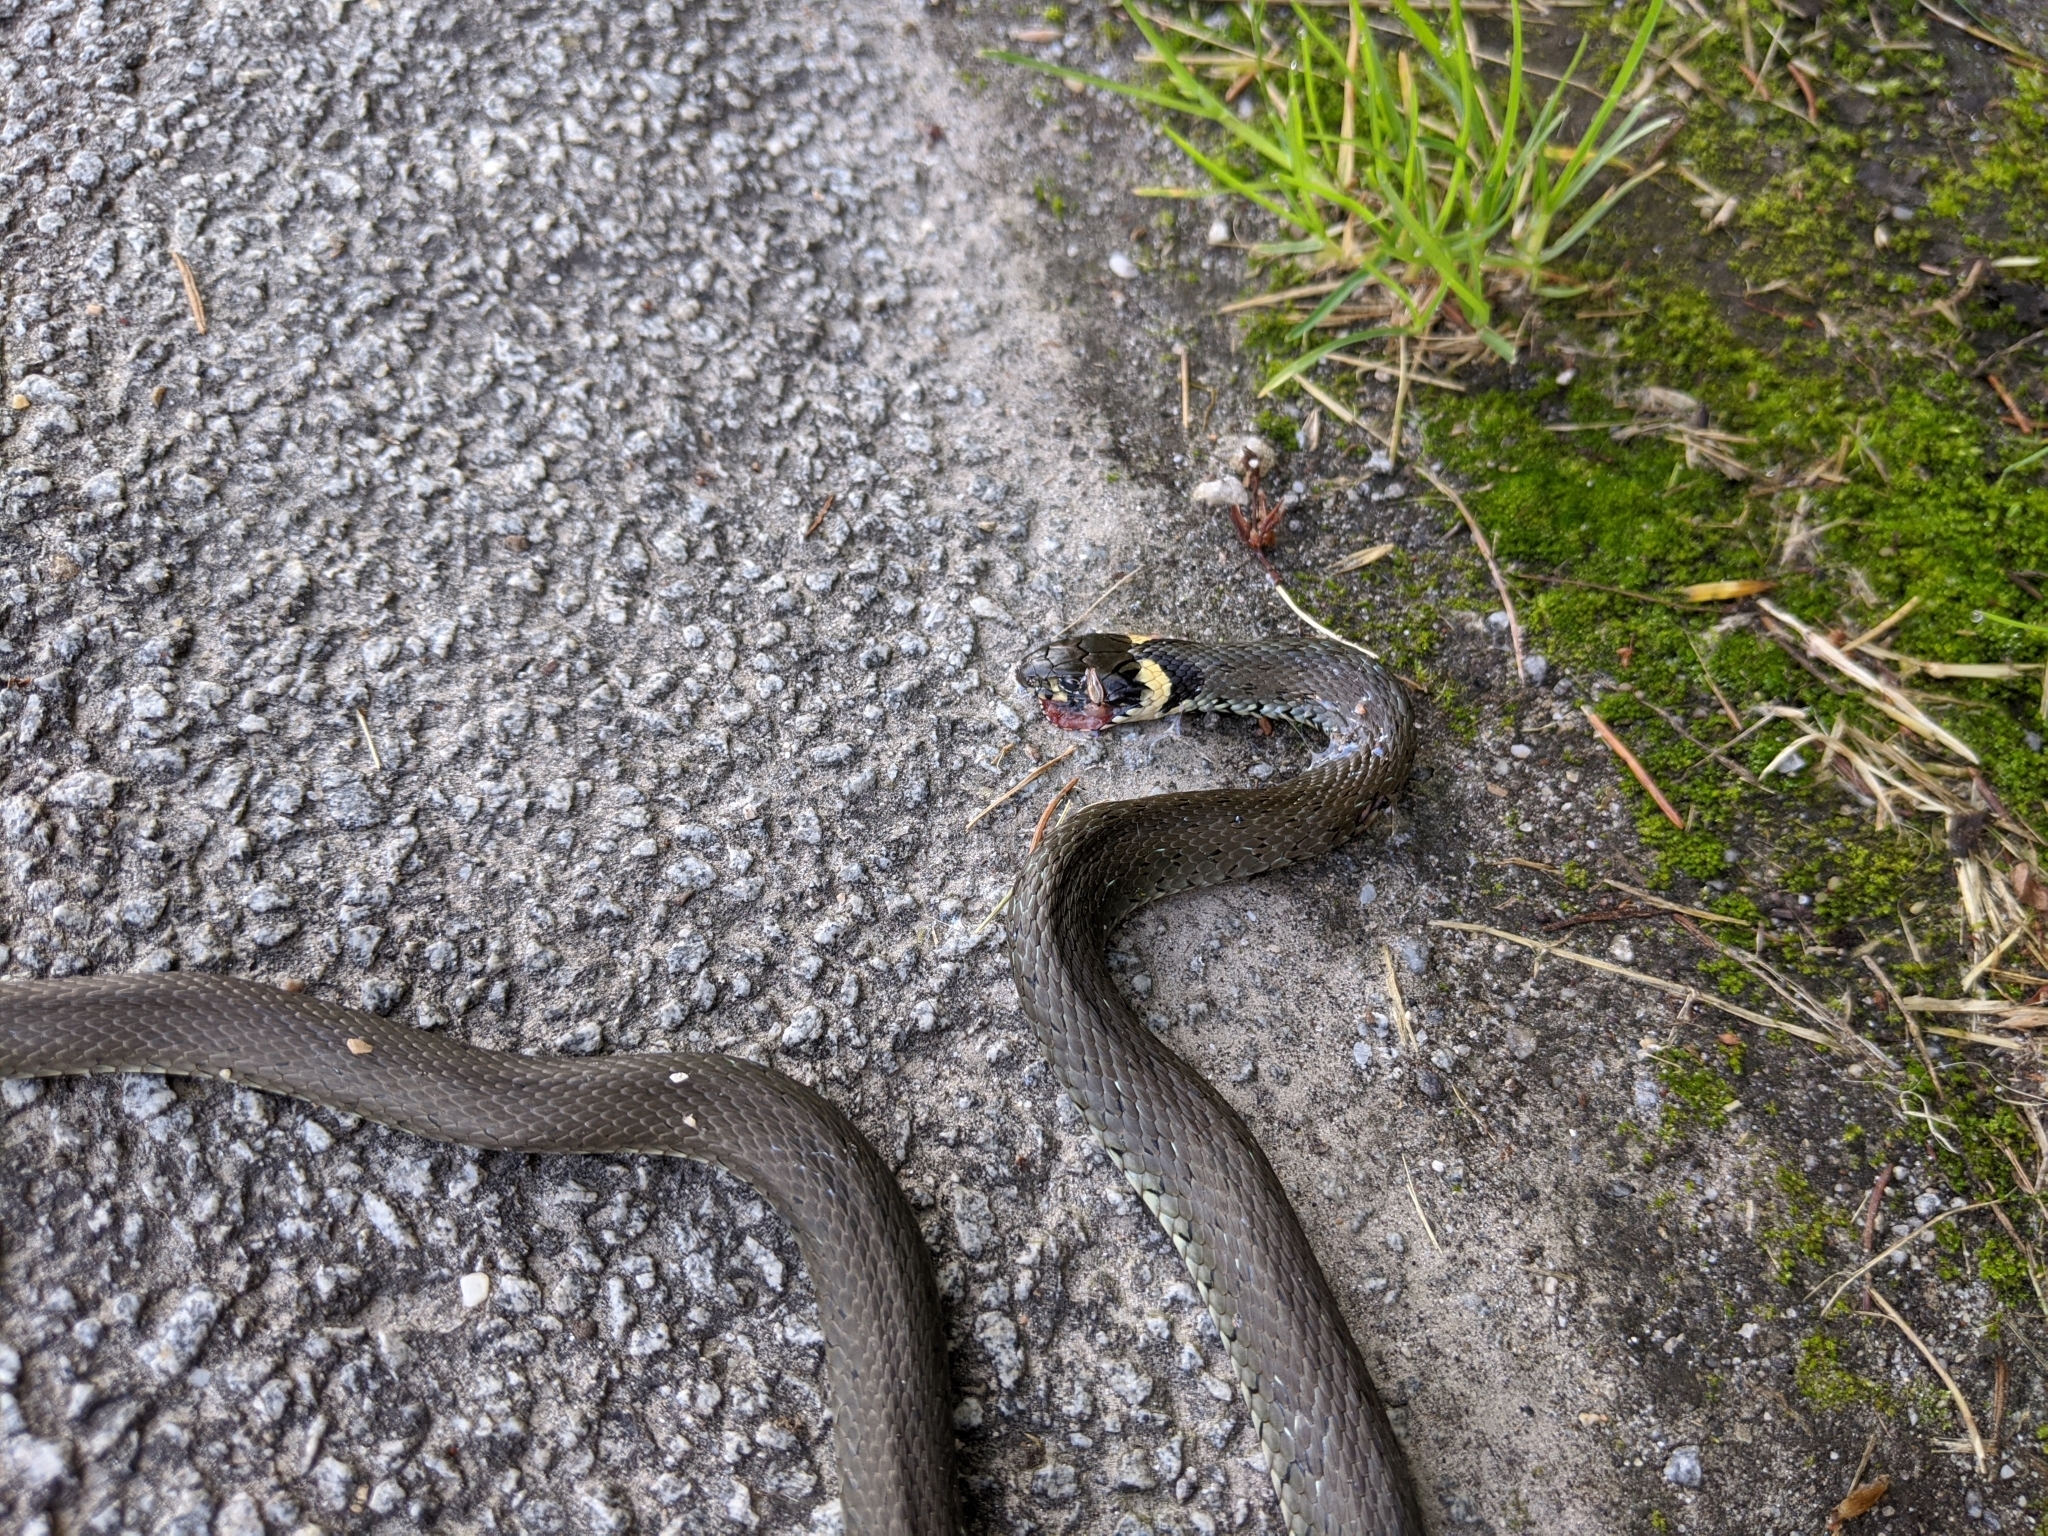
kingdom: Animalia
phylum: Chordata
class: Squamata
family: Colubridae
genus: Natrix
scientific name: Natrix natrix
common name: Grass snake
